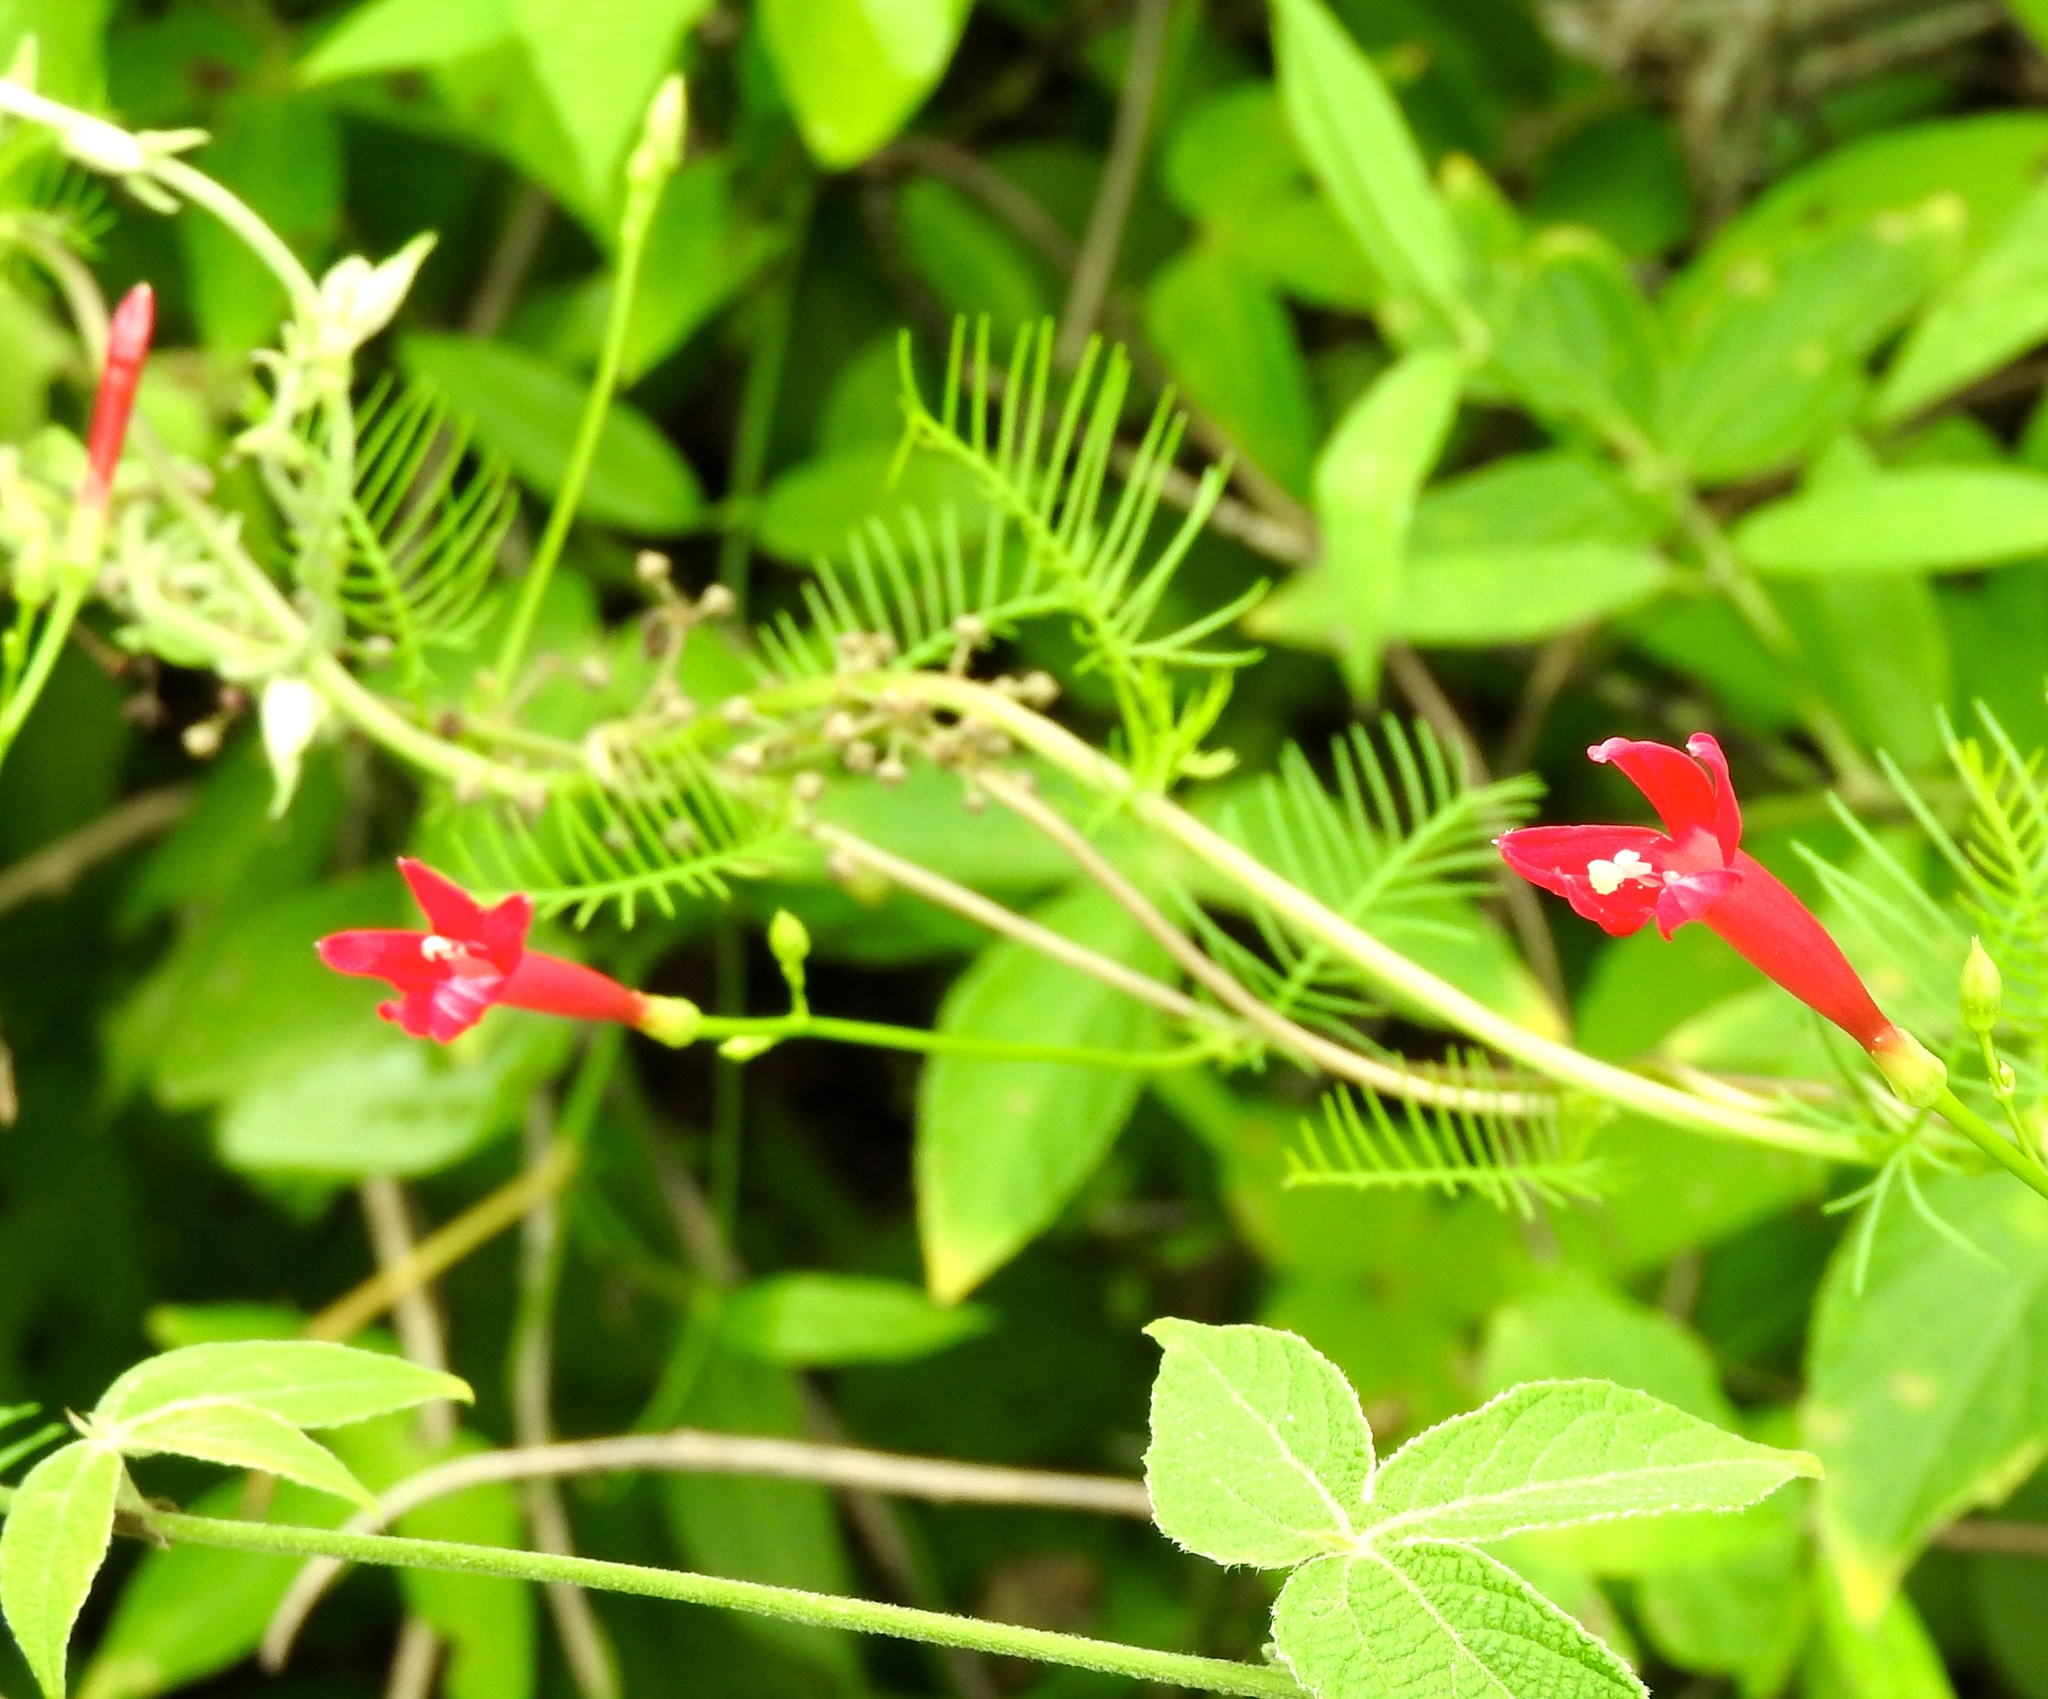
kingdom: Plantae
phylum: Tracheophyta
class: Magnoliopsida
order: Solanales
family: Convolvulaceae
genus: Ipomoea
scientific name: Ipomoea quamoclit
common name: Cypress vine
